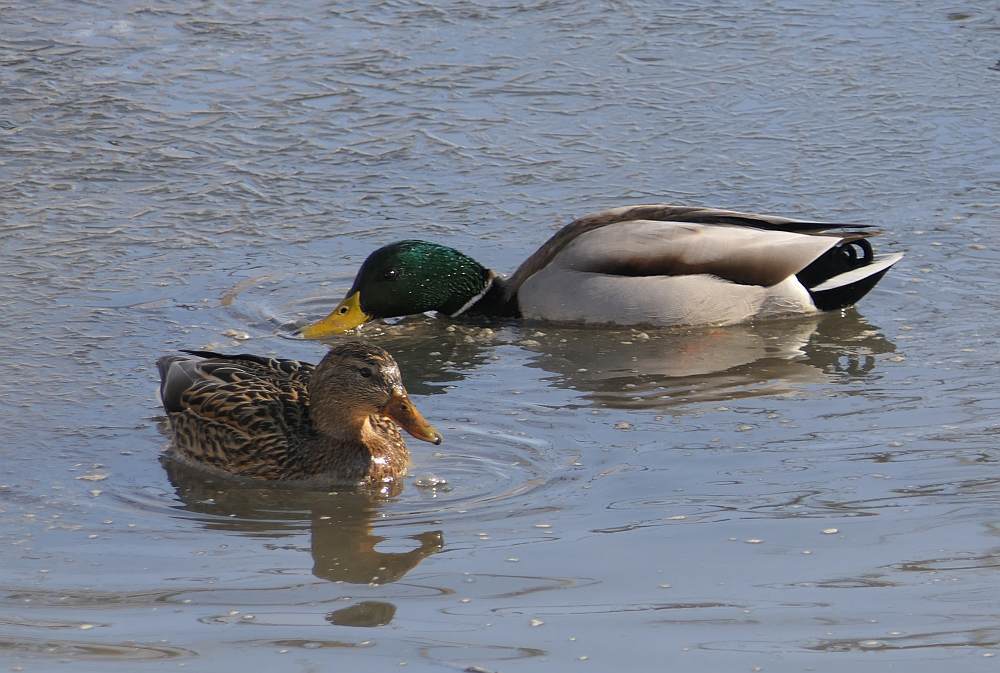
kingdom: Animalia
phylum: Chordata
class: Aves
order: Anseriformes
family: Anatidae
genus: Anas
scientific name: Anas platyrhynchos
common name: Mallard
